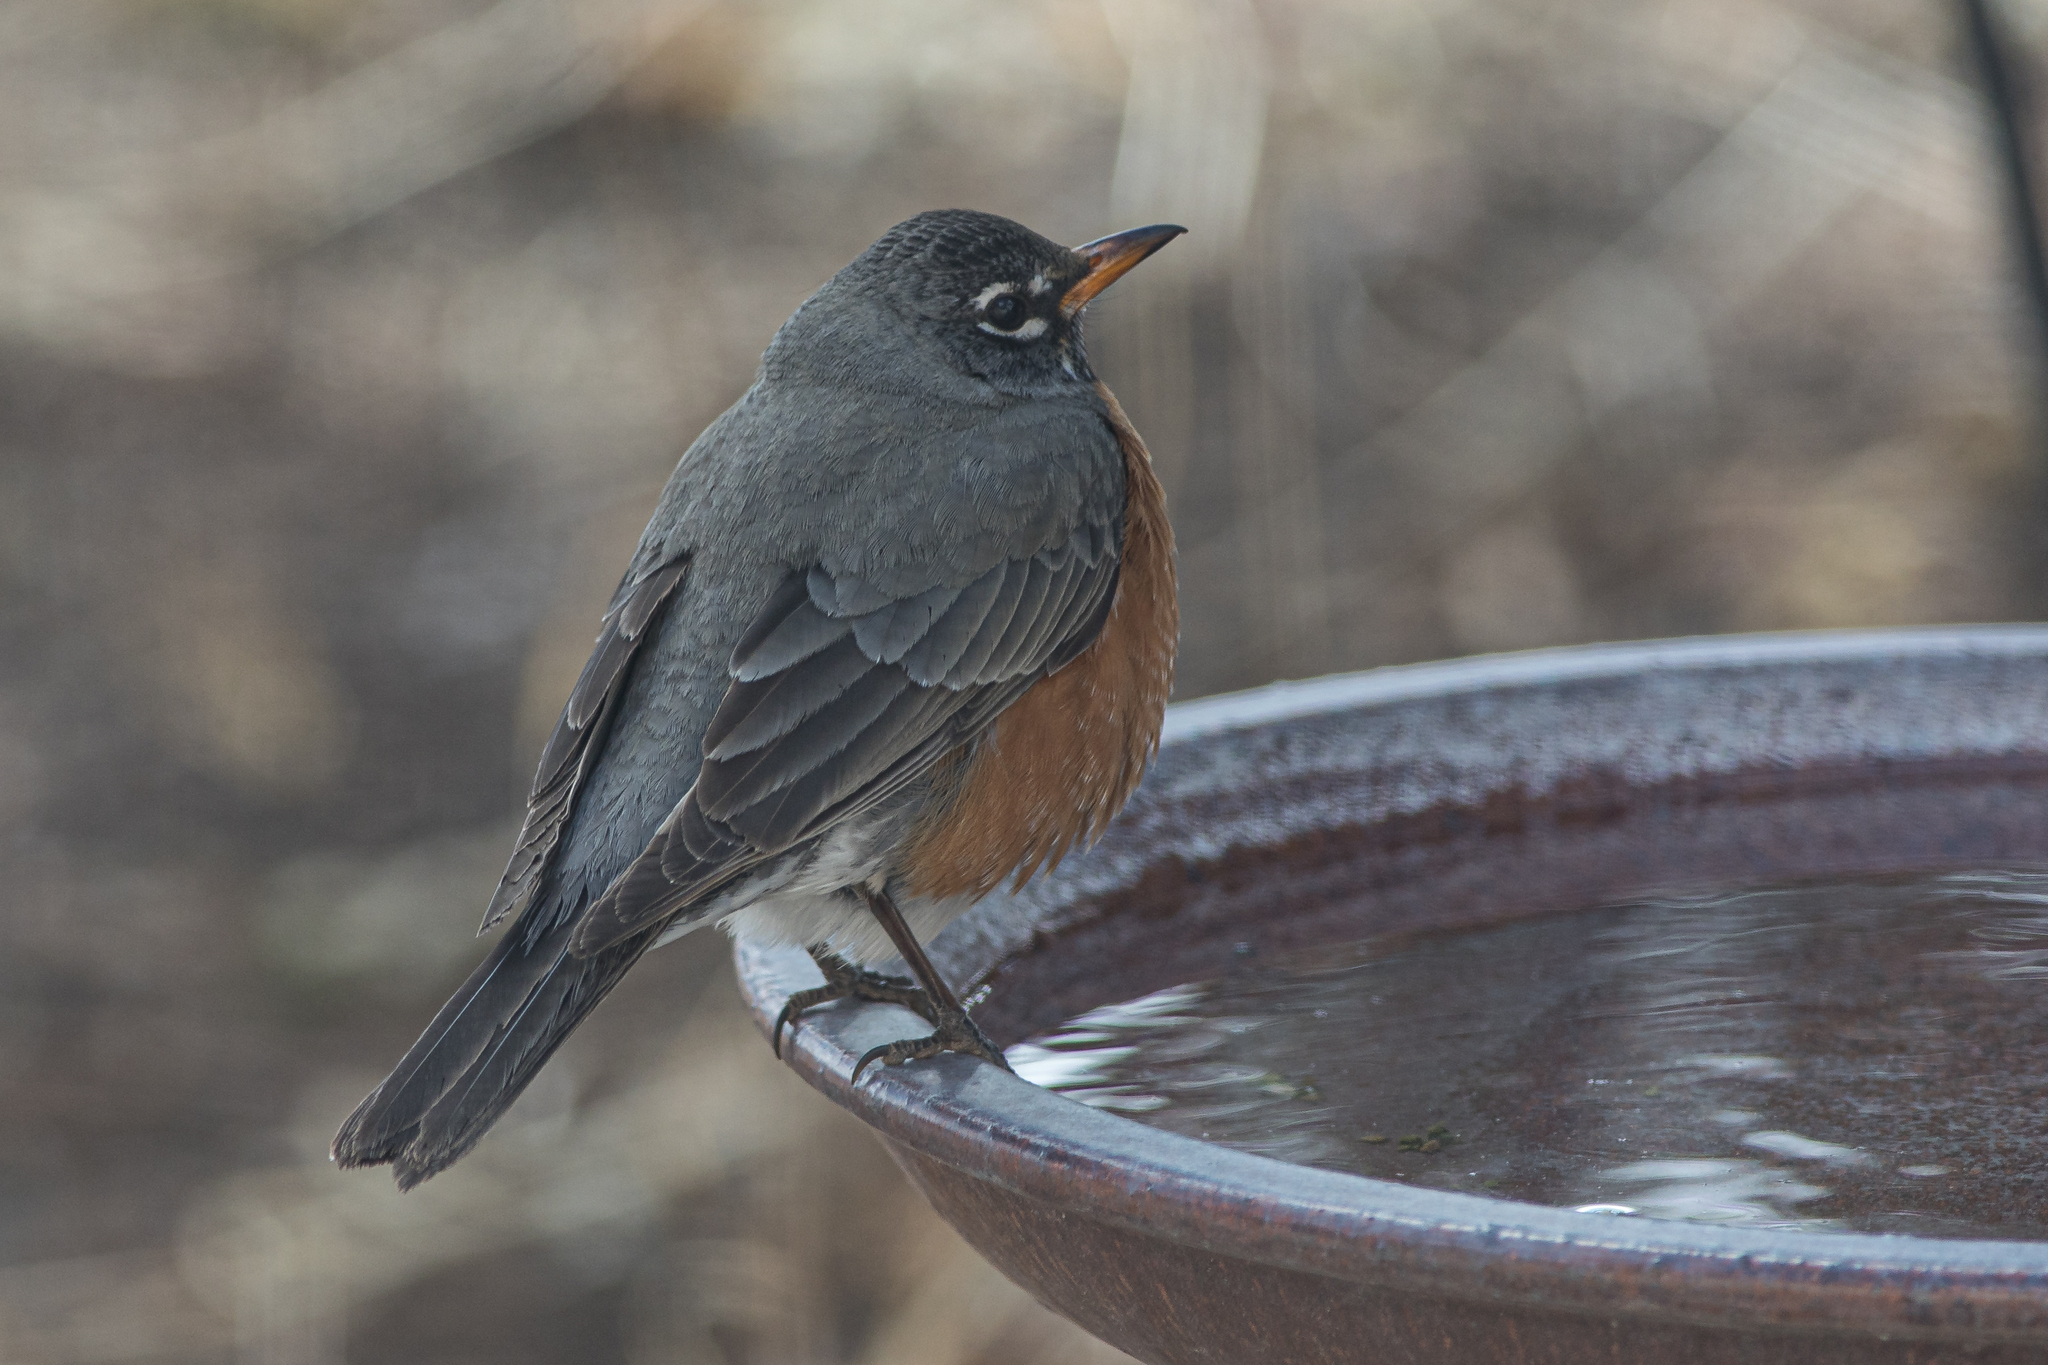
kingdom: Animalia
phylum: Chordata
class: Aves
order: Passeriformes
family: Turdidae
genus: Turdus
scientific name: Turdus migratorius
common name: American robin
